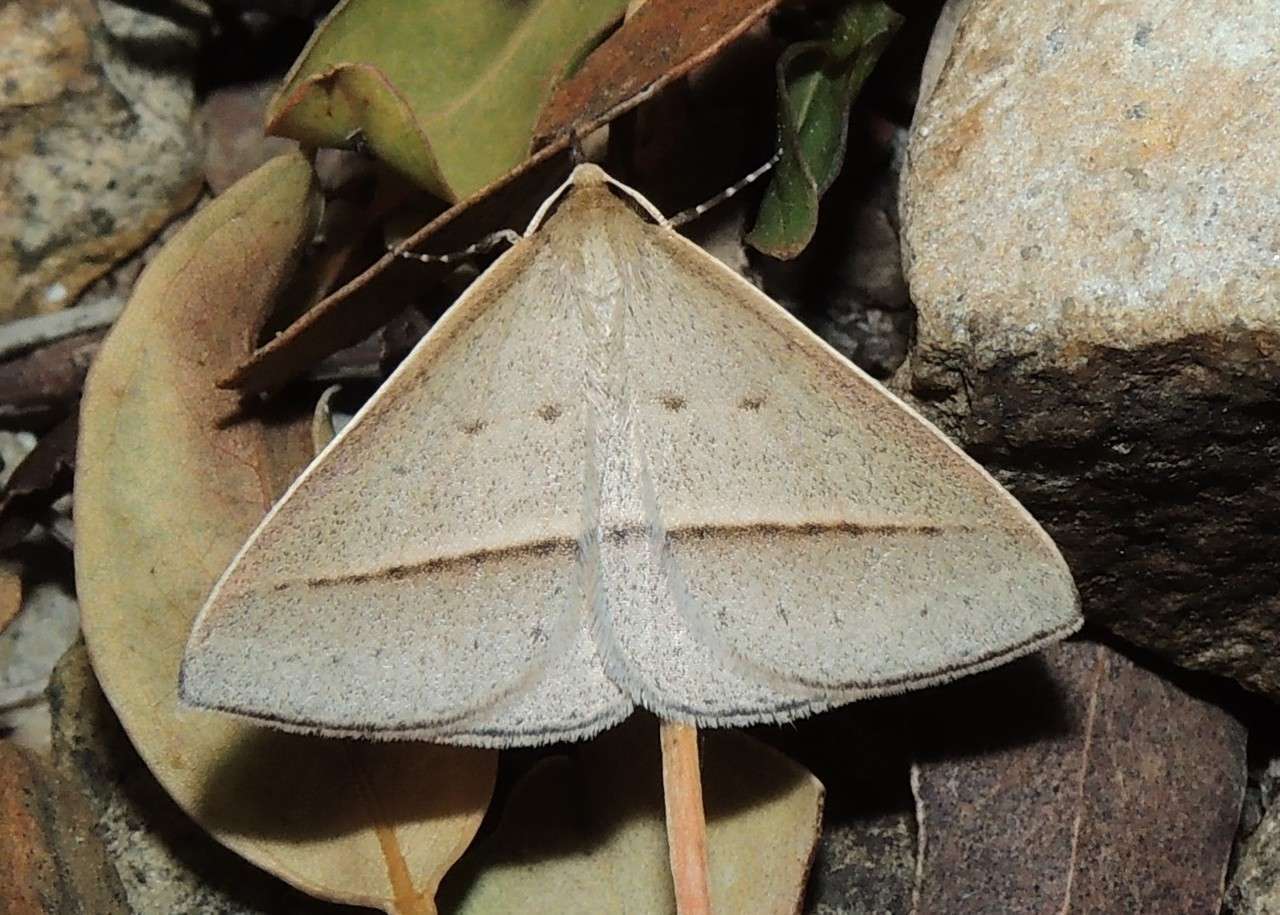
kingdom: Animalia
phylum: Arthropoda
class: Insecta
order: Lepidoptera
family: Geometridae
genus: Epidesmia
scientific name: Epidesmia tryxaria
